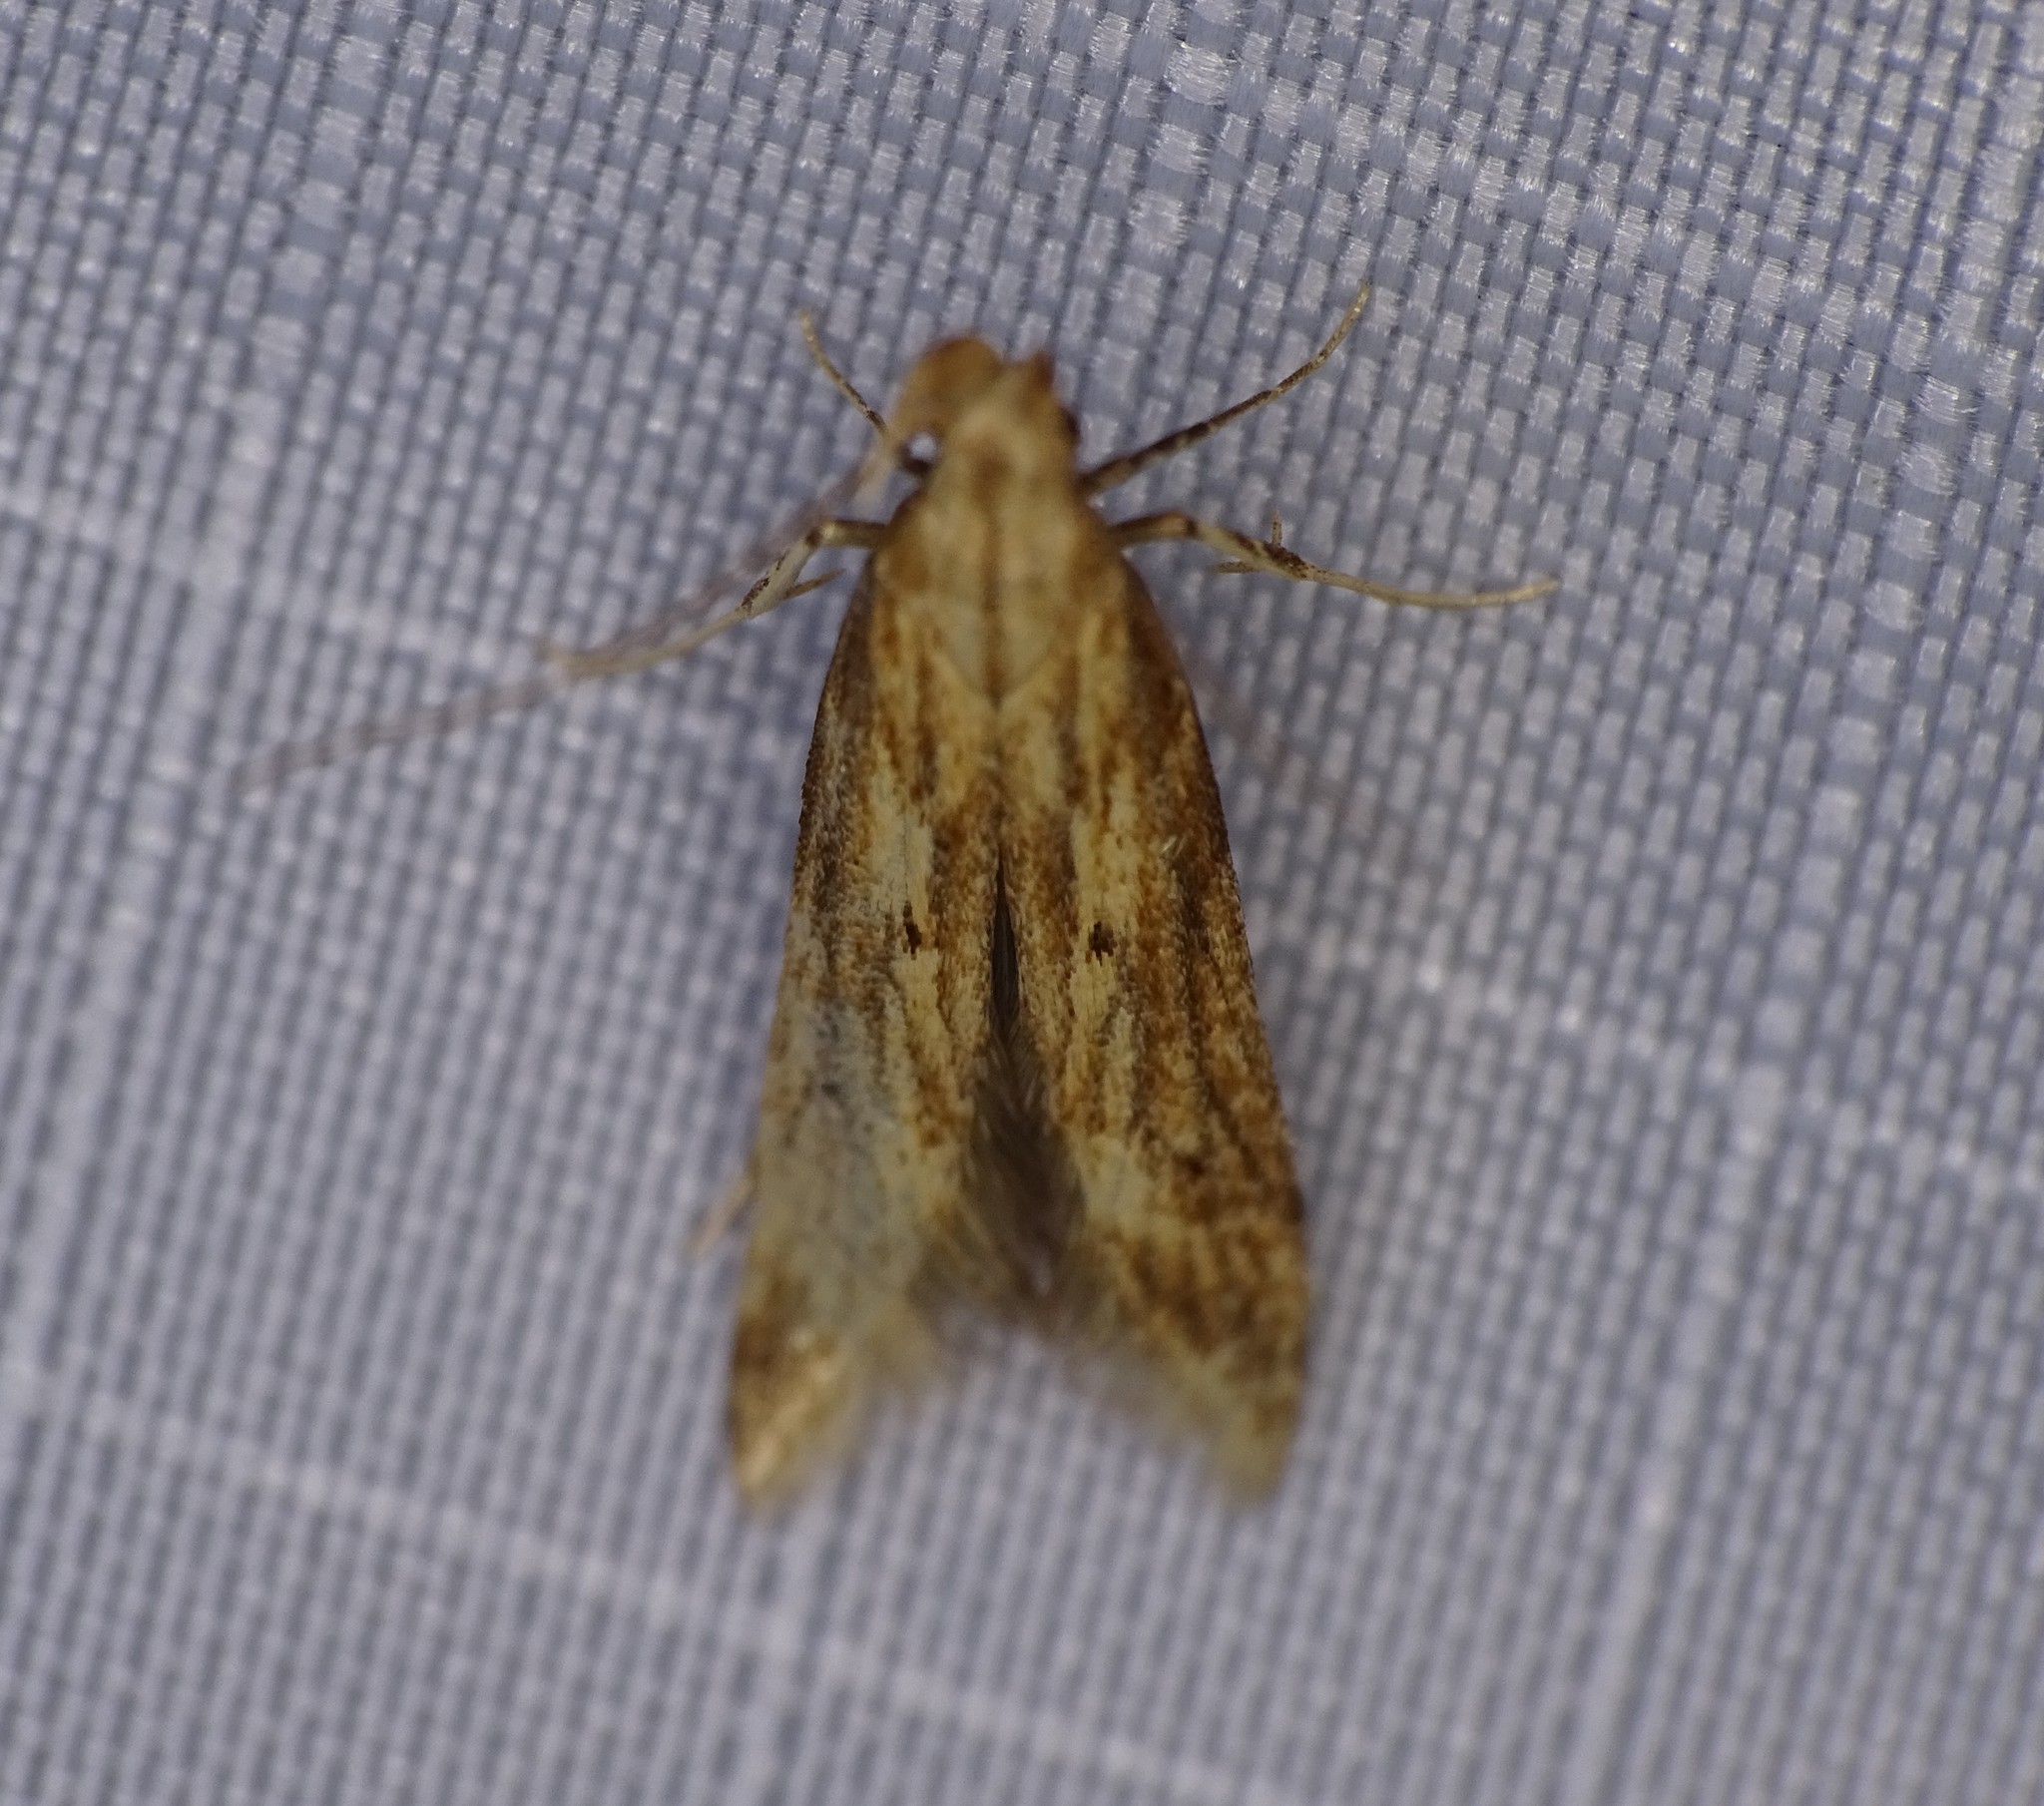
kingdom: Animalia
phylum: Arthropoda
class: Insecta
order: Lepidoptera
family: Gelechiidae
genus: Metzneria
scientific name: Metzneria lappella
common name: Burdock neb
